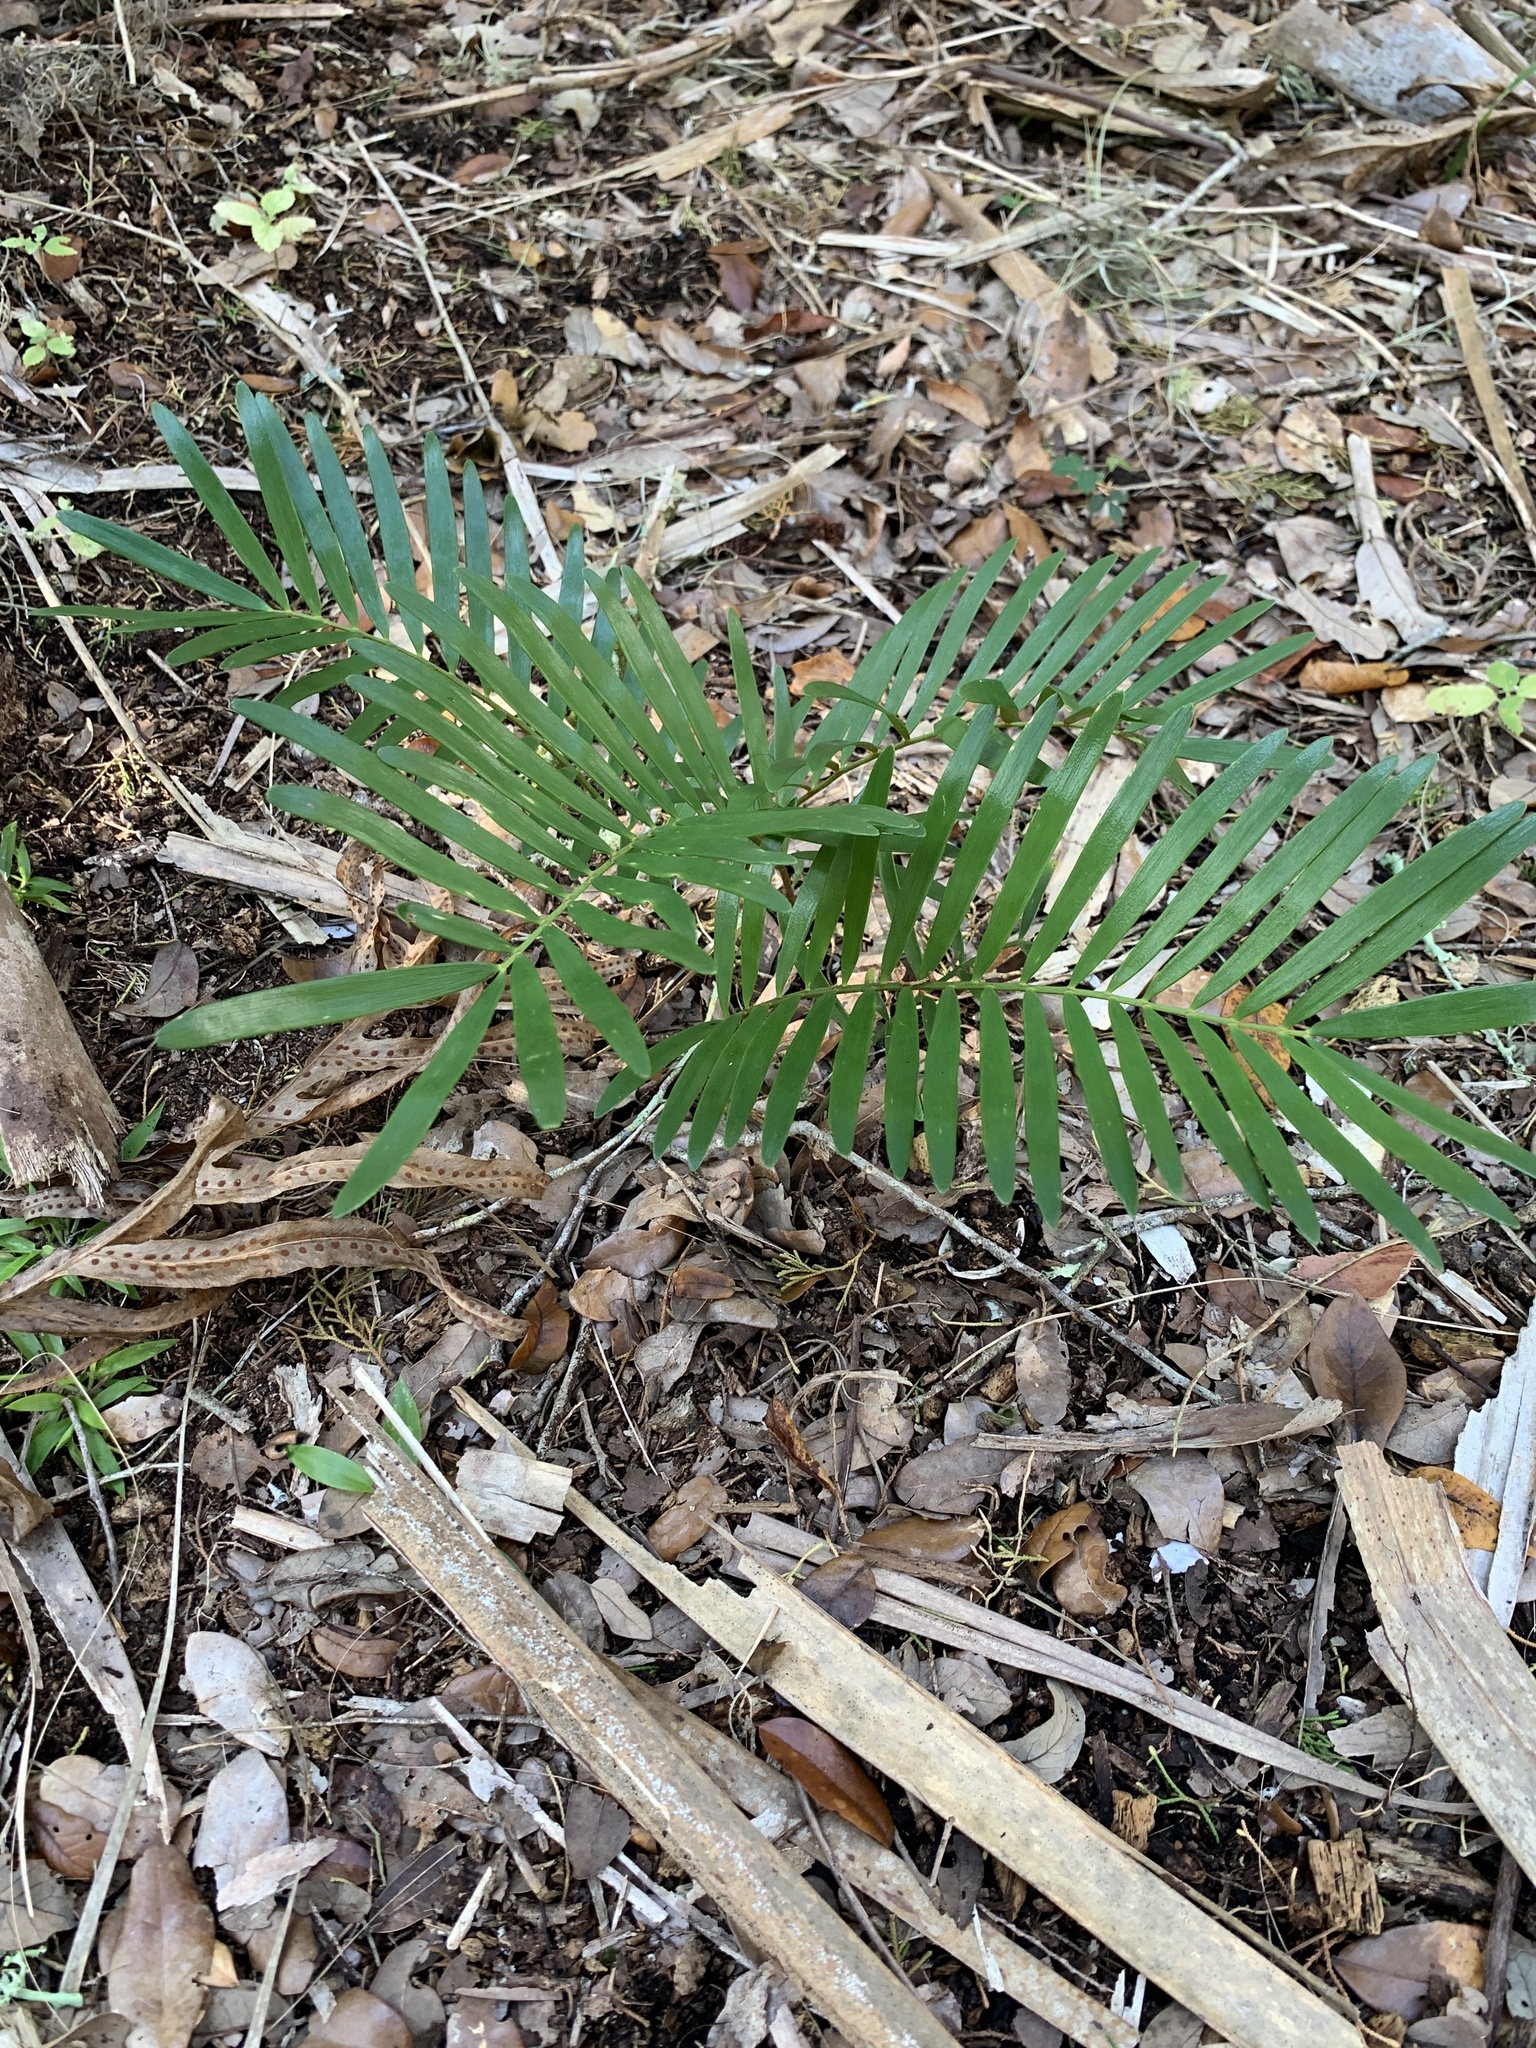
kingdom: Plantae
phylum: Tracheophyta
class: Cycadopsida
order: Cycadales
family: Zamiaceae
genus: Zamia
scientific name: Zamia integrifolia
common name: Florida arrowroot
